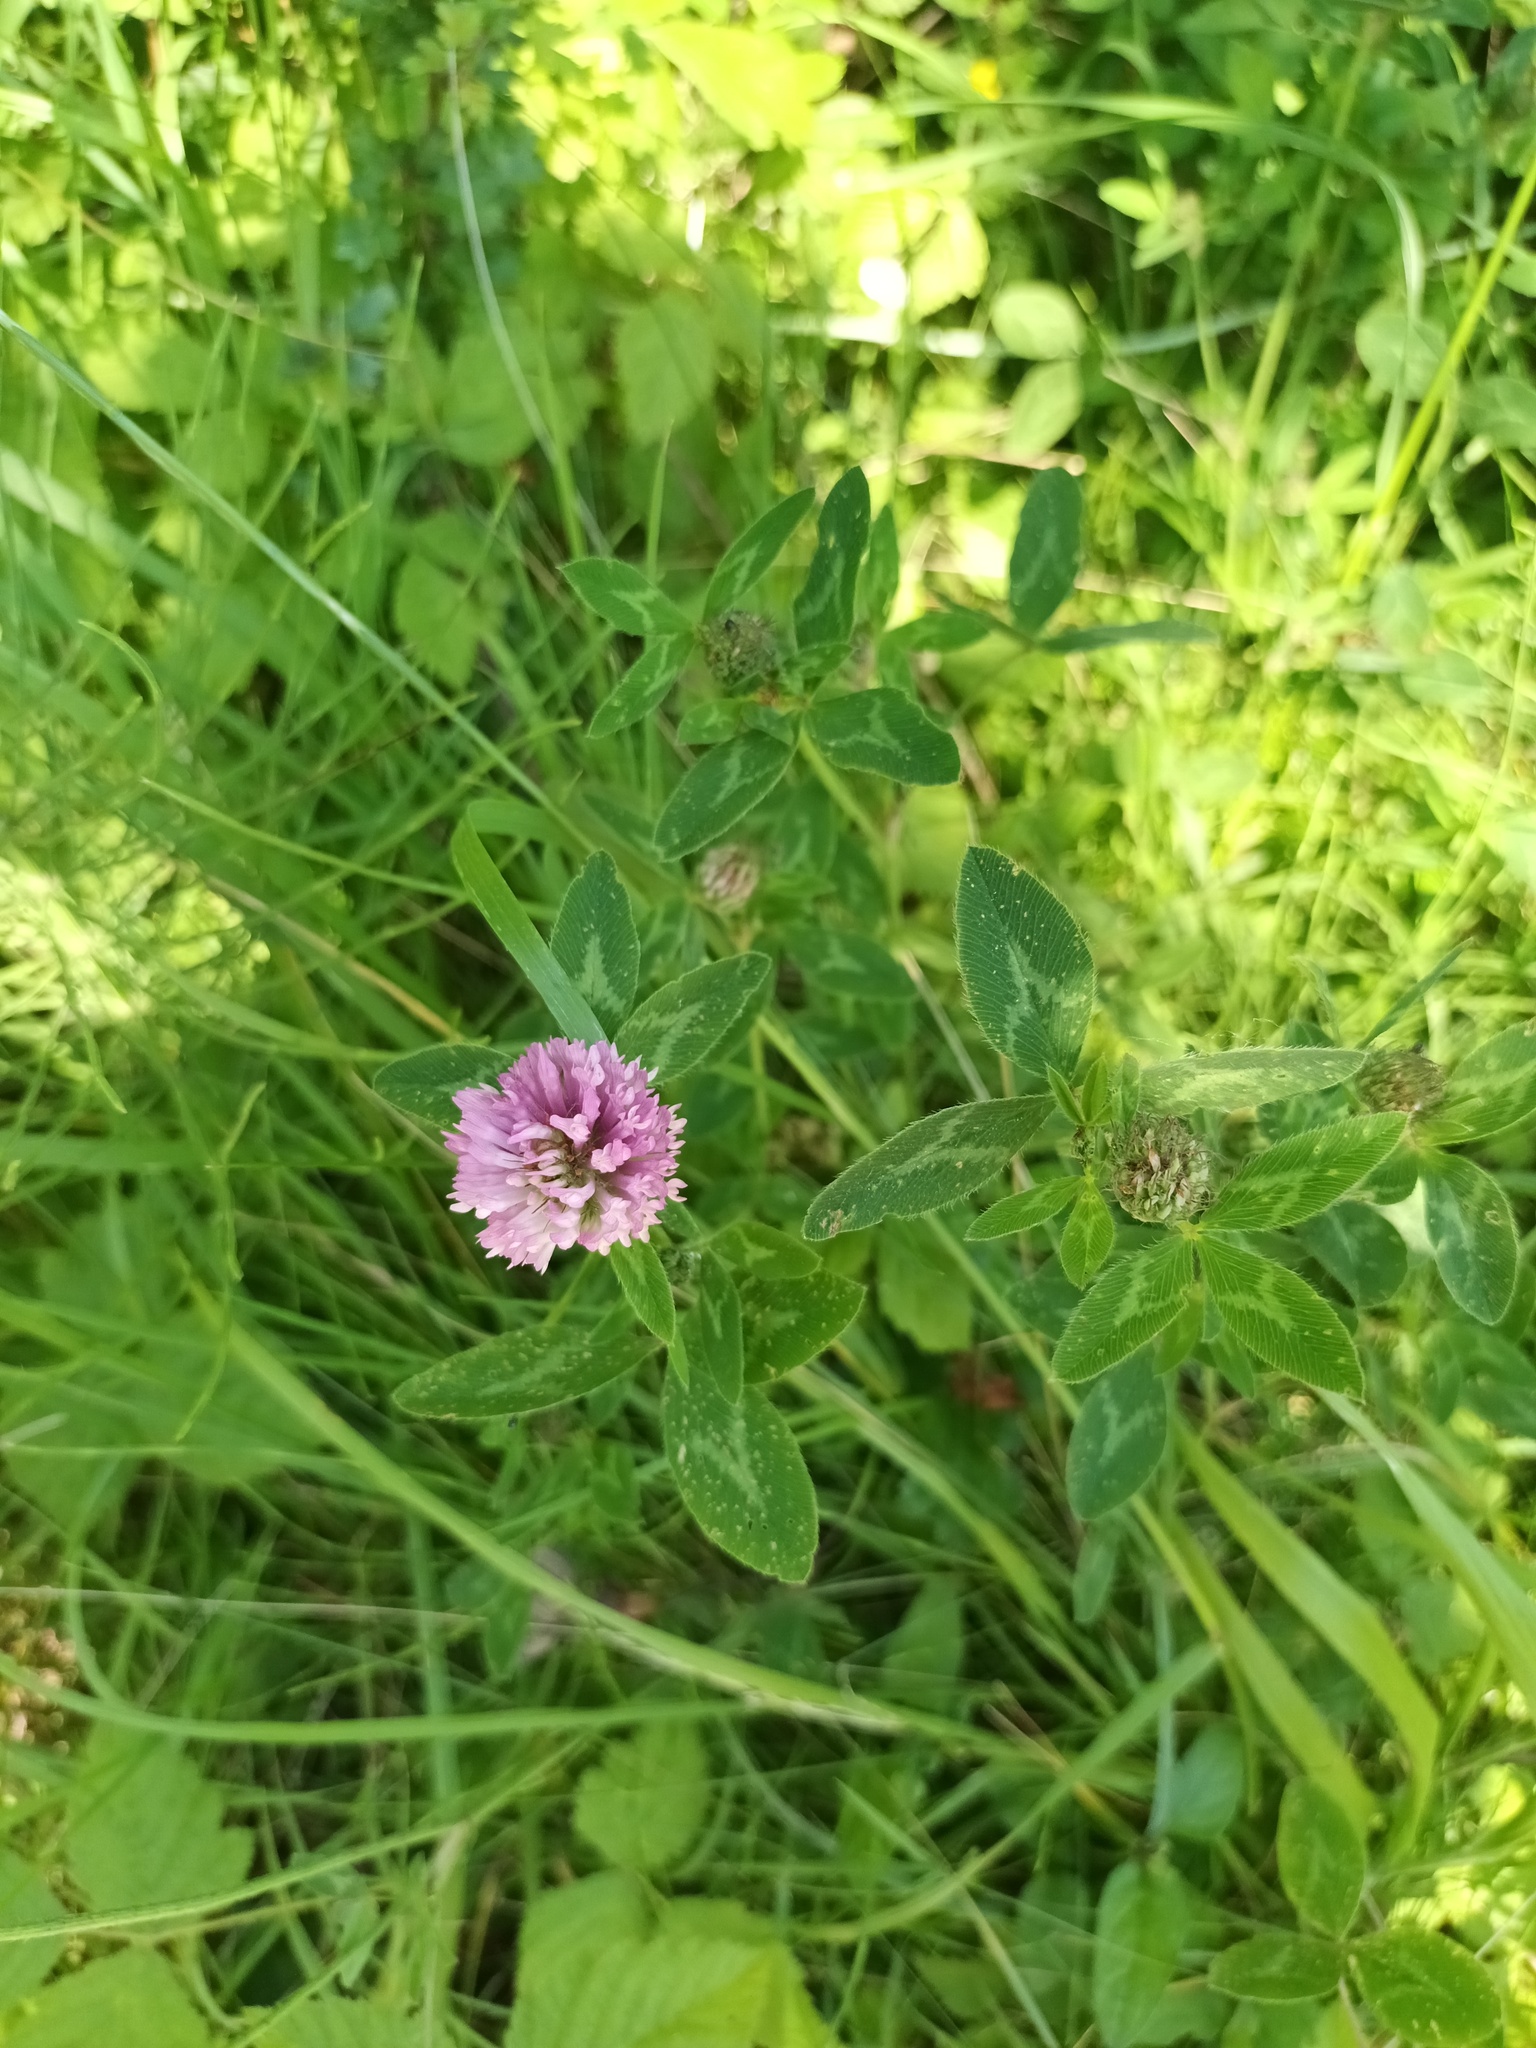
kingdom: Plantae
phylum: Tracheophyta
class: Magnoliopsida
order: Fabales
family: Fabaceae
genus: Trifolium
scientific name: Trifolium pratense
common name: Red clover
